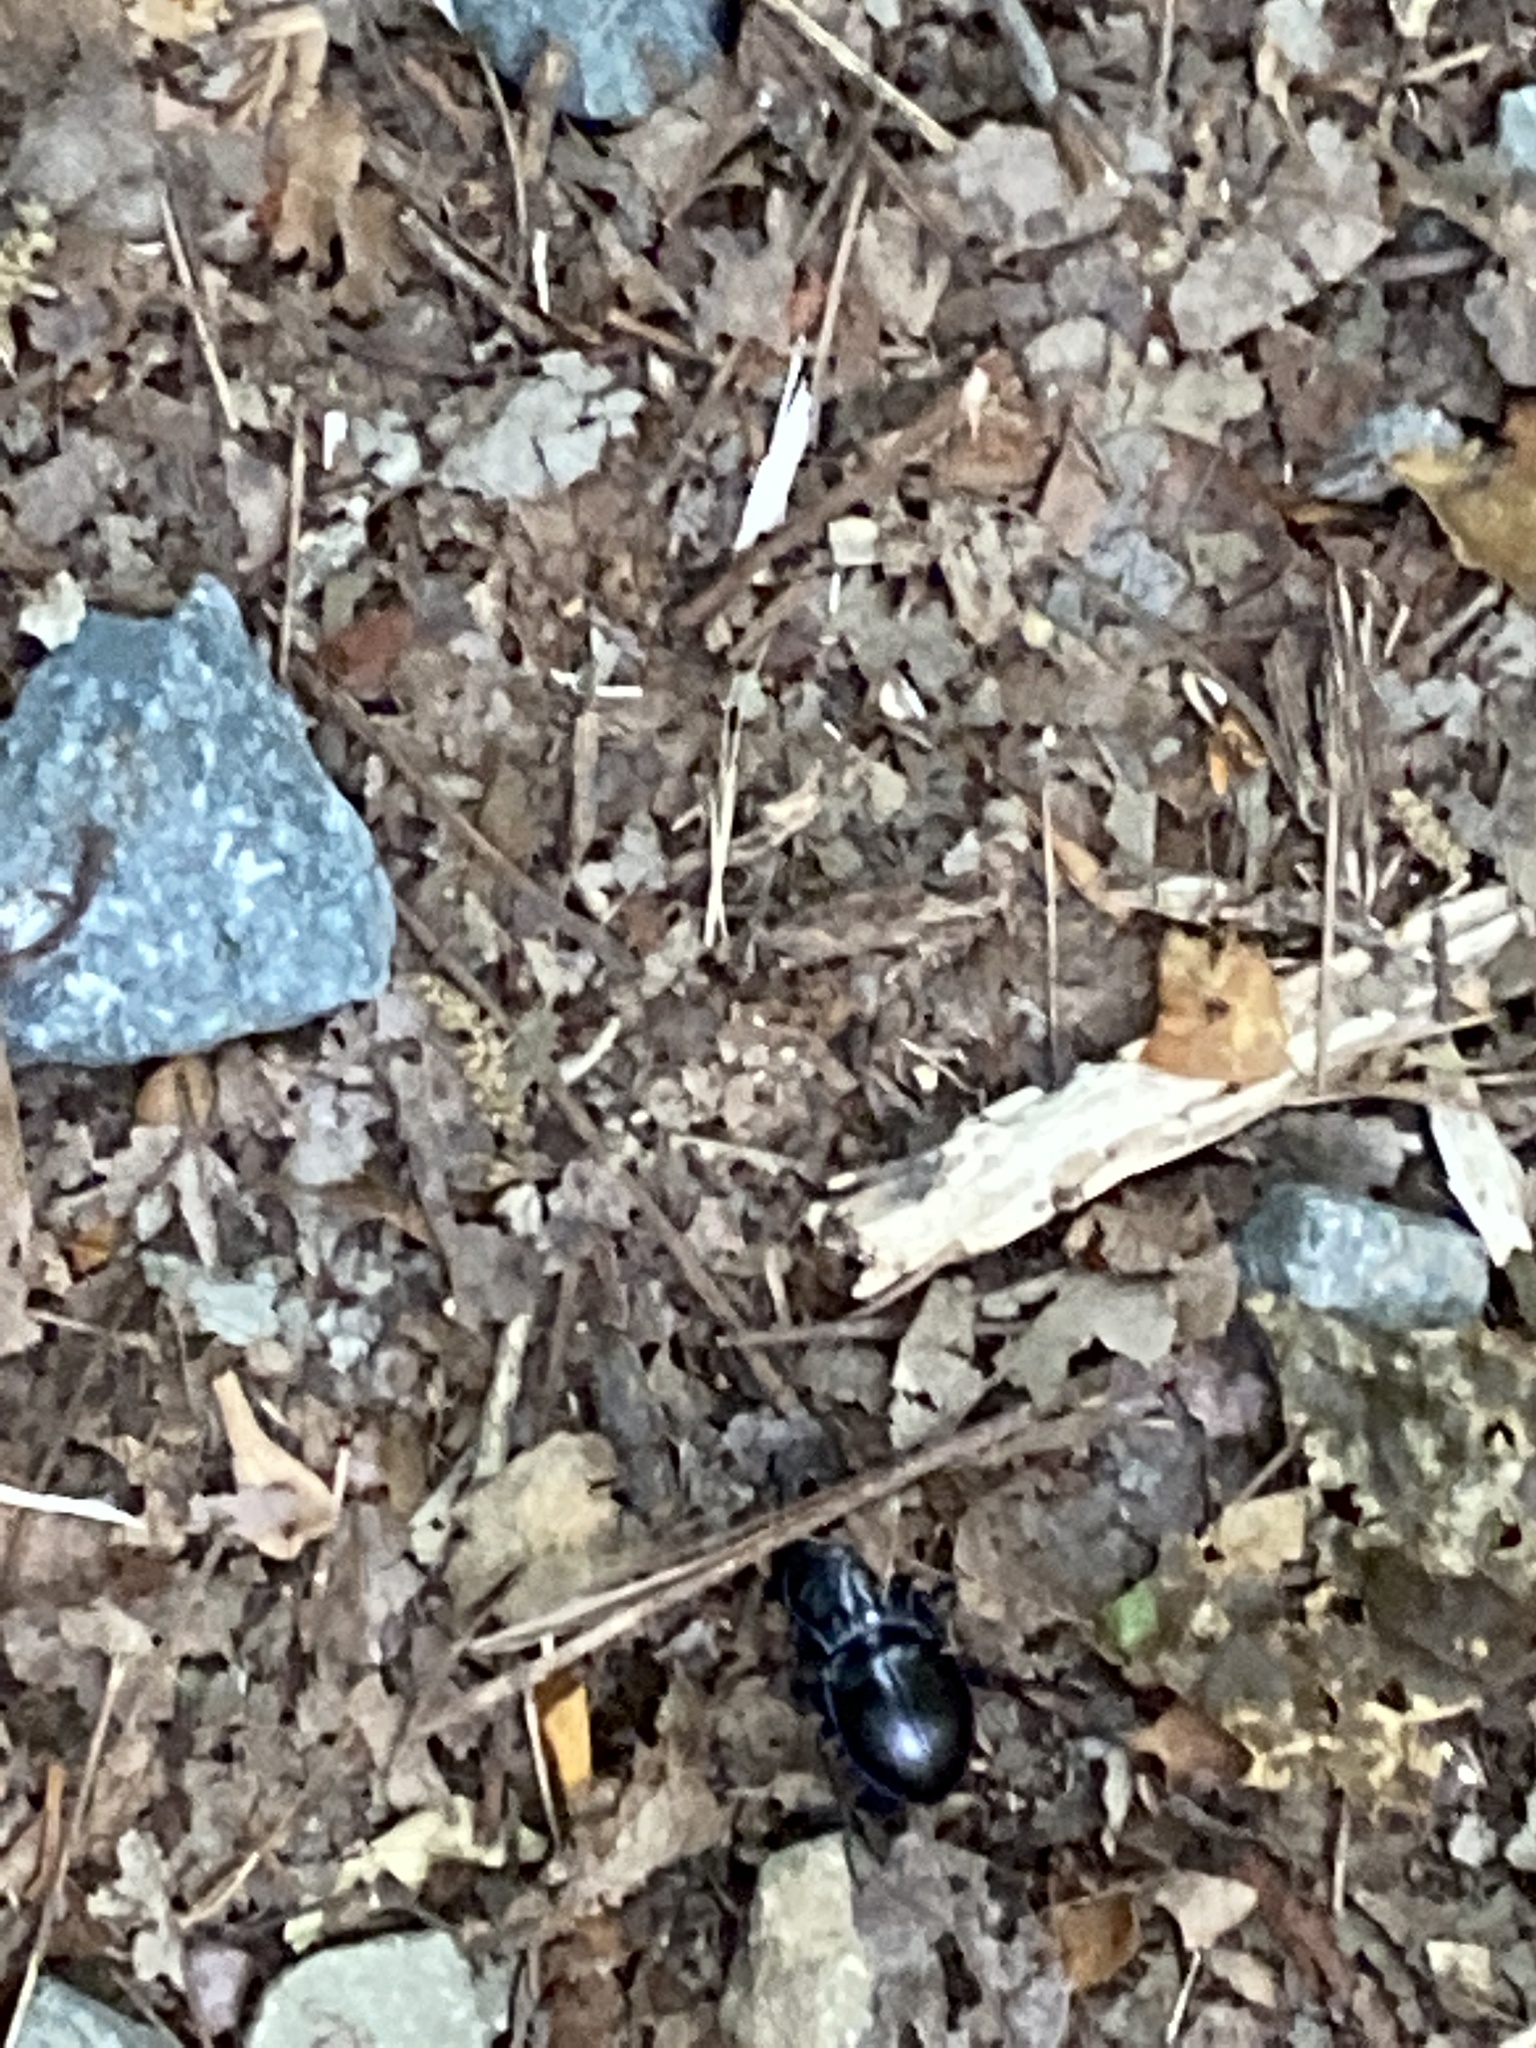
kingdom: Animalia
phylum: Arthropoda
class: Insecta
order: Coleoptera
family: Carabidae
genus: Pasimachus
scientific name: Pasimachus
